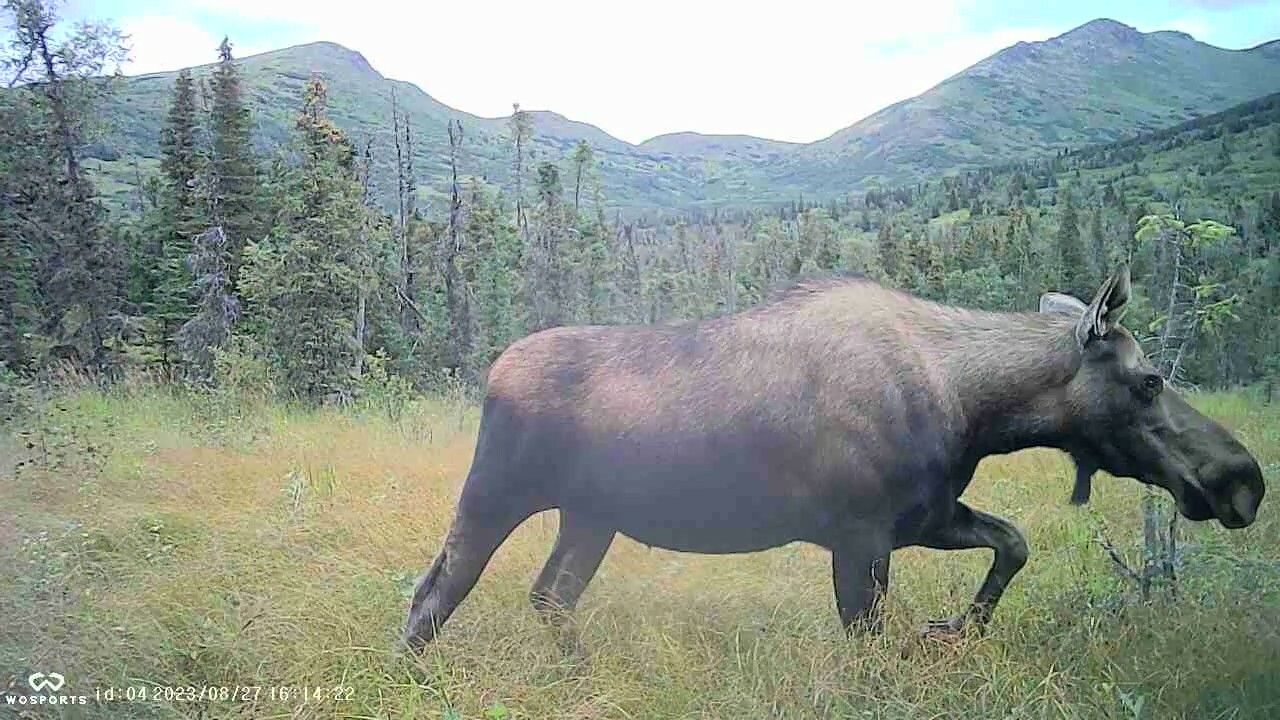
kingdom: Animalia
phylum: Chordata
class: Mammalia
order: Artiodactyla
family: Cervidae
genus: Alces
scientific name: Alces alces
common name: Moose
